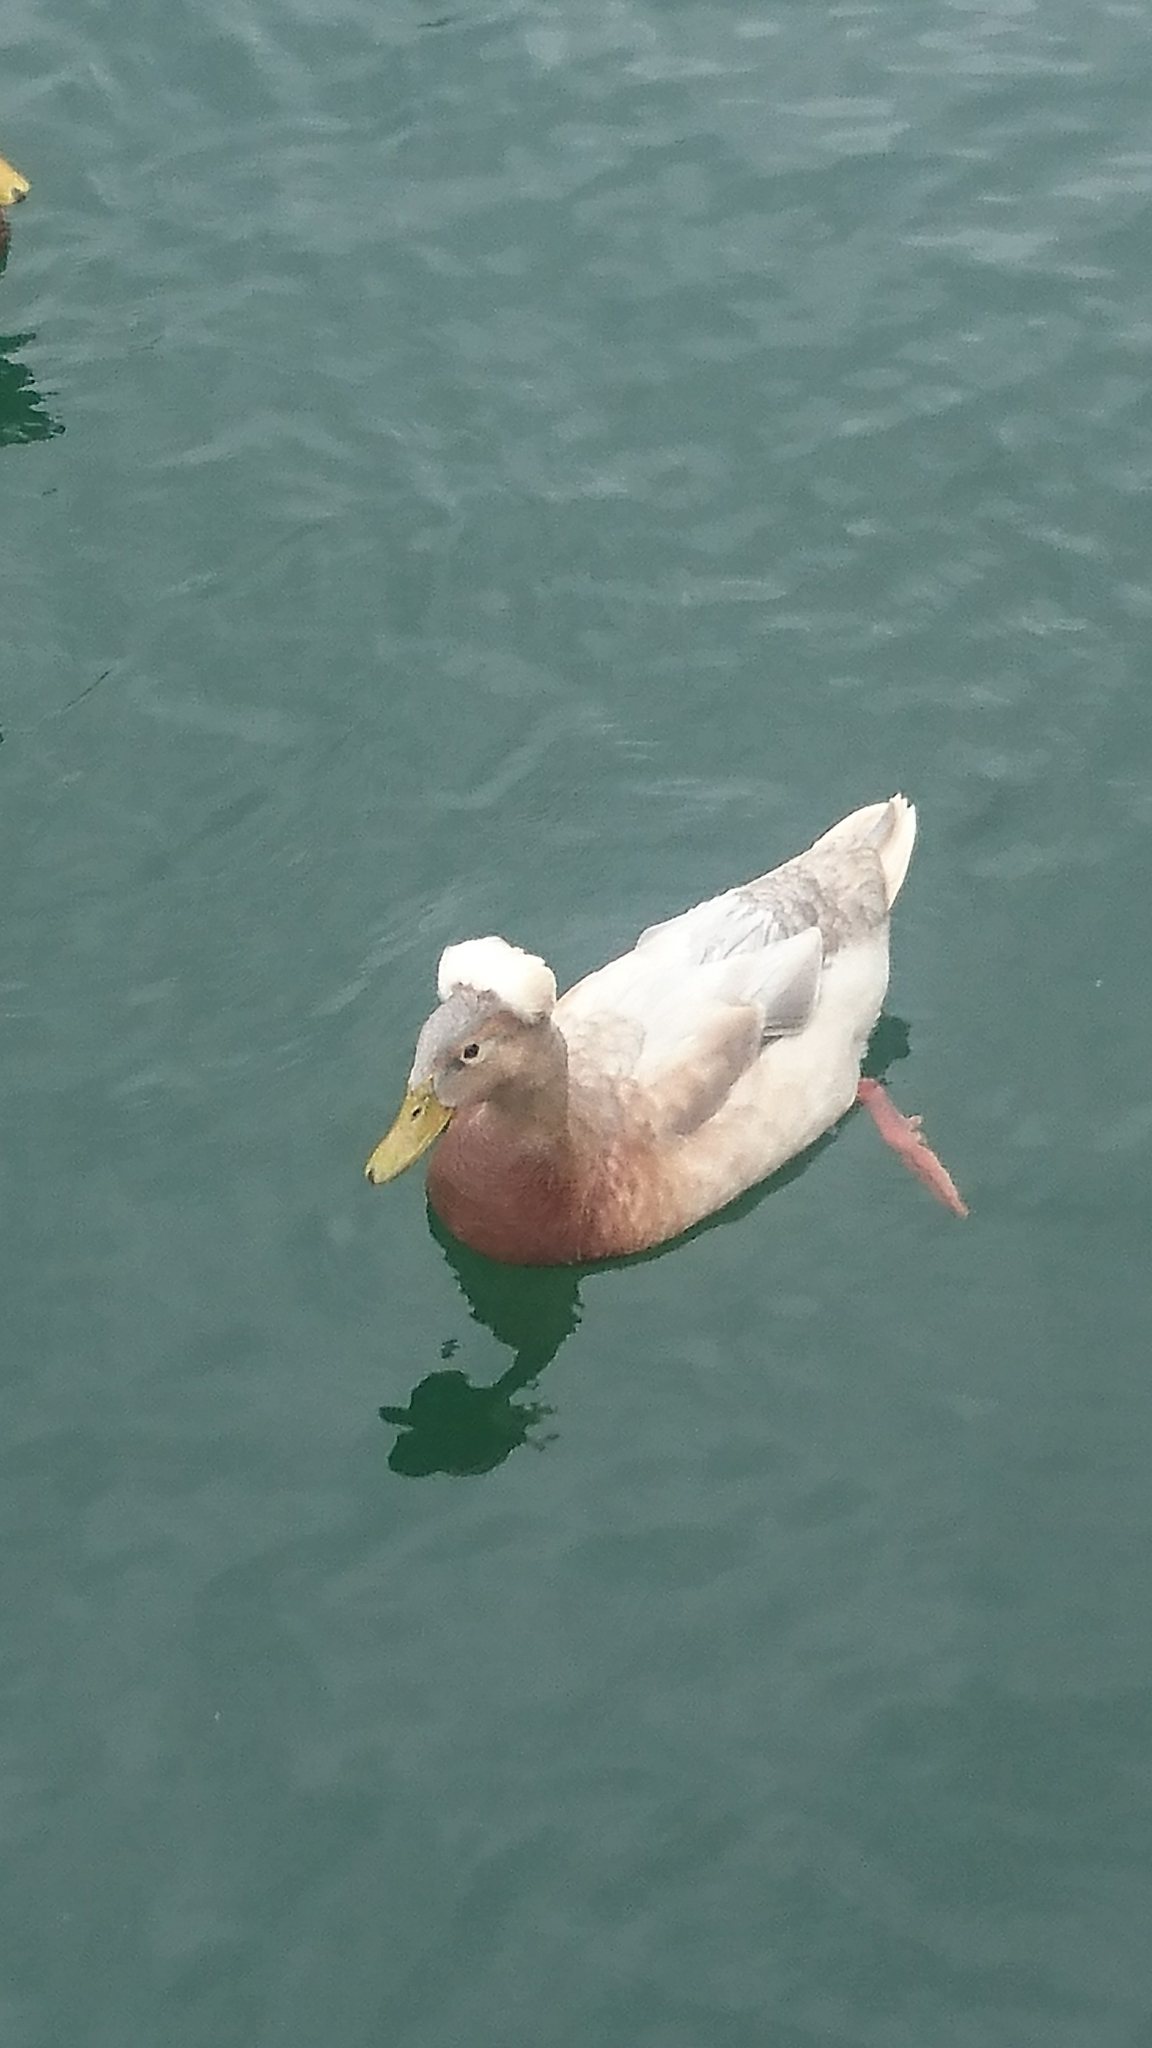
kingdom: Animalia
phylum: Chordata
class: Aves
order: Anseriformes
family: Anatidae
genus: Anas
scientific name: Anas platyrhynchos
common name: Mallard
